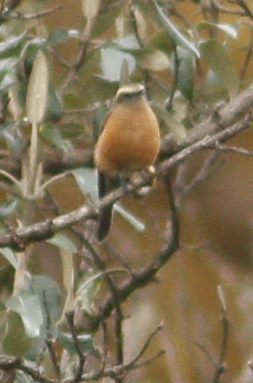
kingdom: Animalia
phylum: Chordata
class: Aves
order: Passeriformes
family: Tyrannidae
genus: Ochthoeca
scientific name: Ochthoeca fumicolor
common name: Brown-backed chat-tyrant
